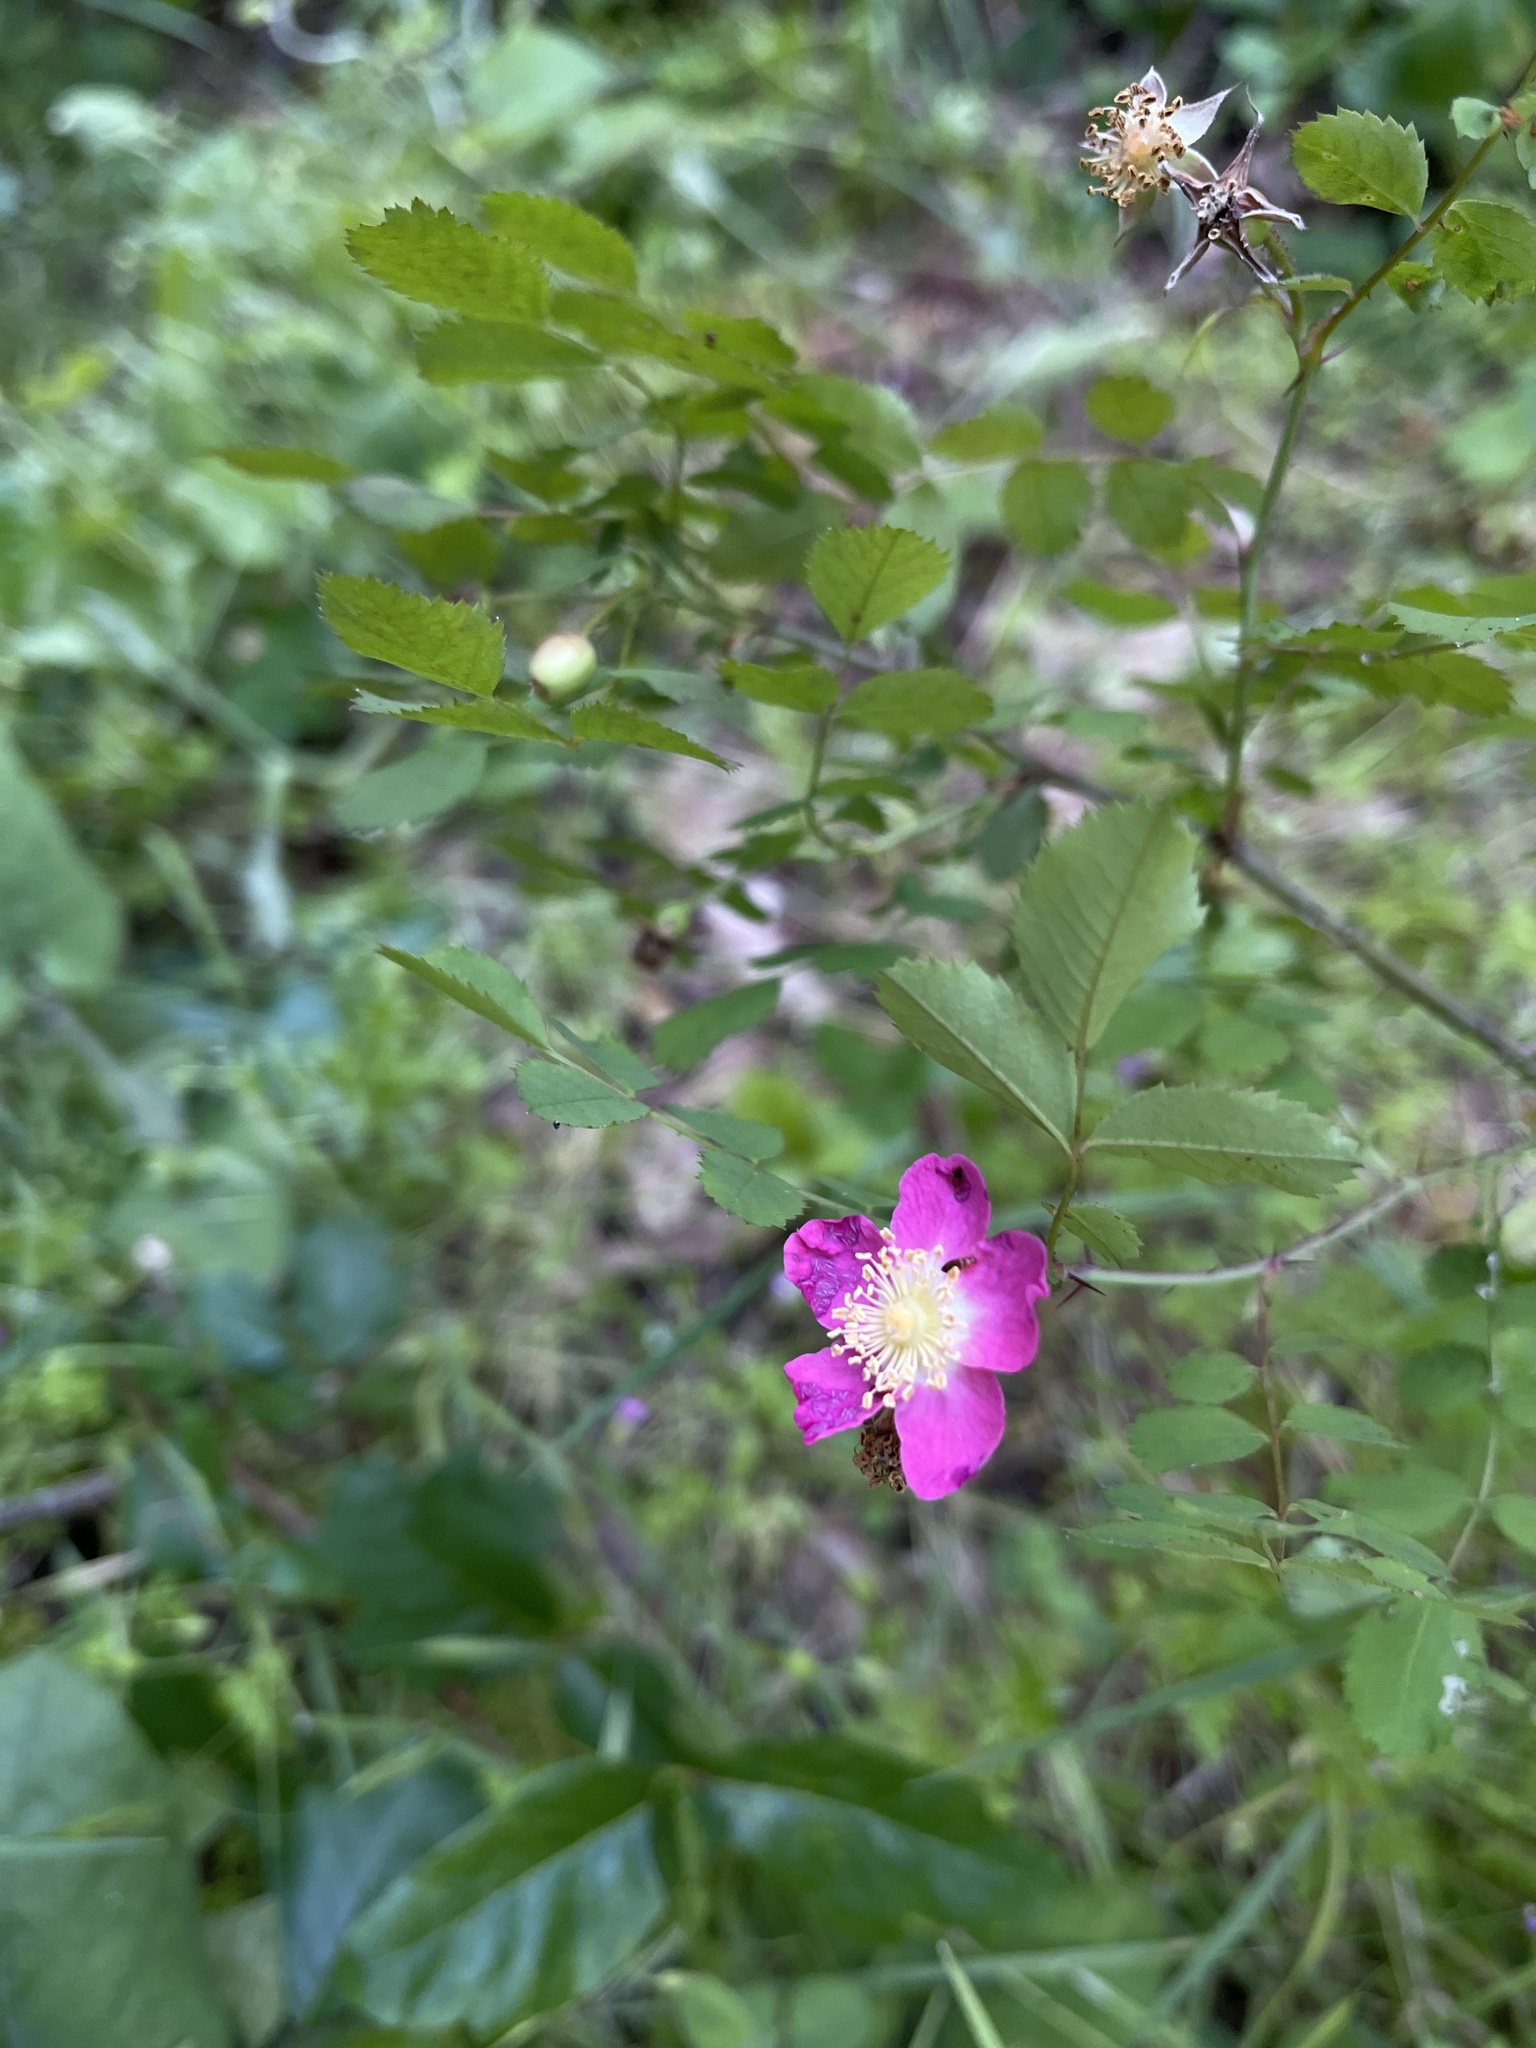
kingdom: Plantae
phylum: Tracheophyta
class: Magnoliopsida
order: Rosales
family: Rosaceae
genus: Rosa
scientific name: Rosa gymnocarpa
